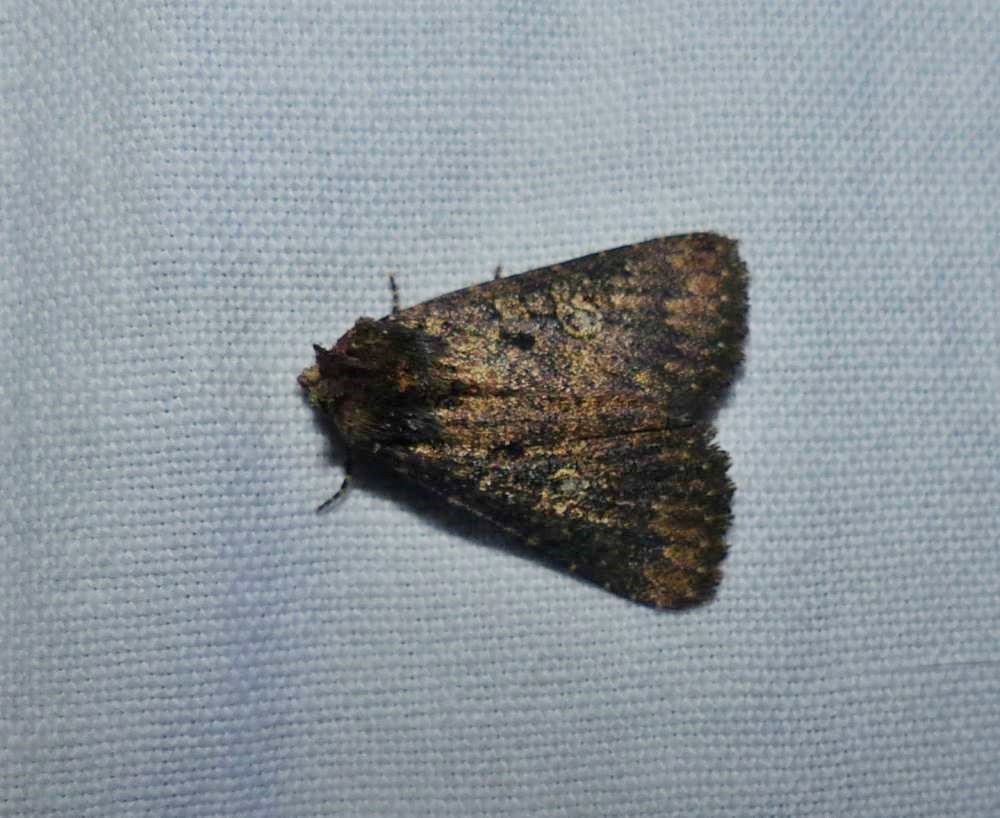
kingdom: Animalia
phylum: Arthropoda
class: Insecta
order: Lepidoptera
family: Noctuidae
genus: Condica
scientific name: Condica vecors
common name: Dusky groundling
